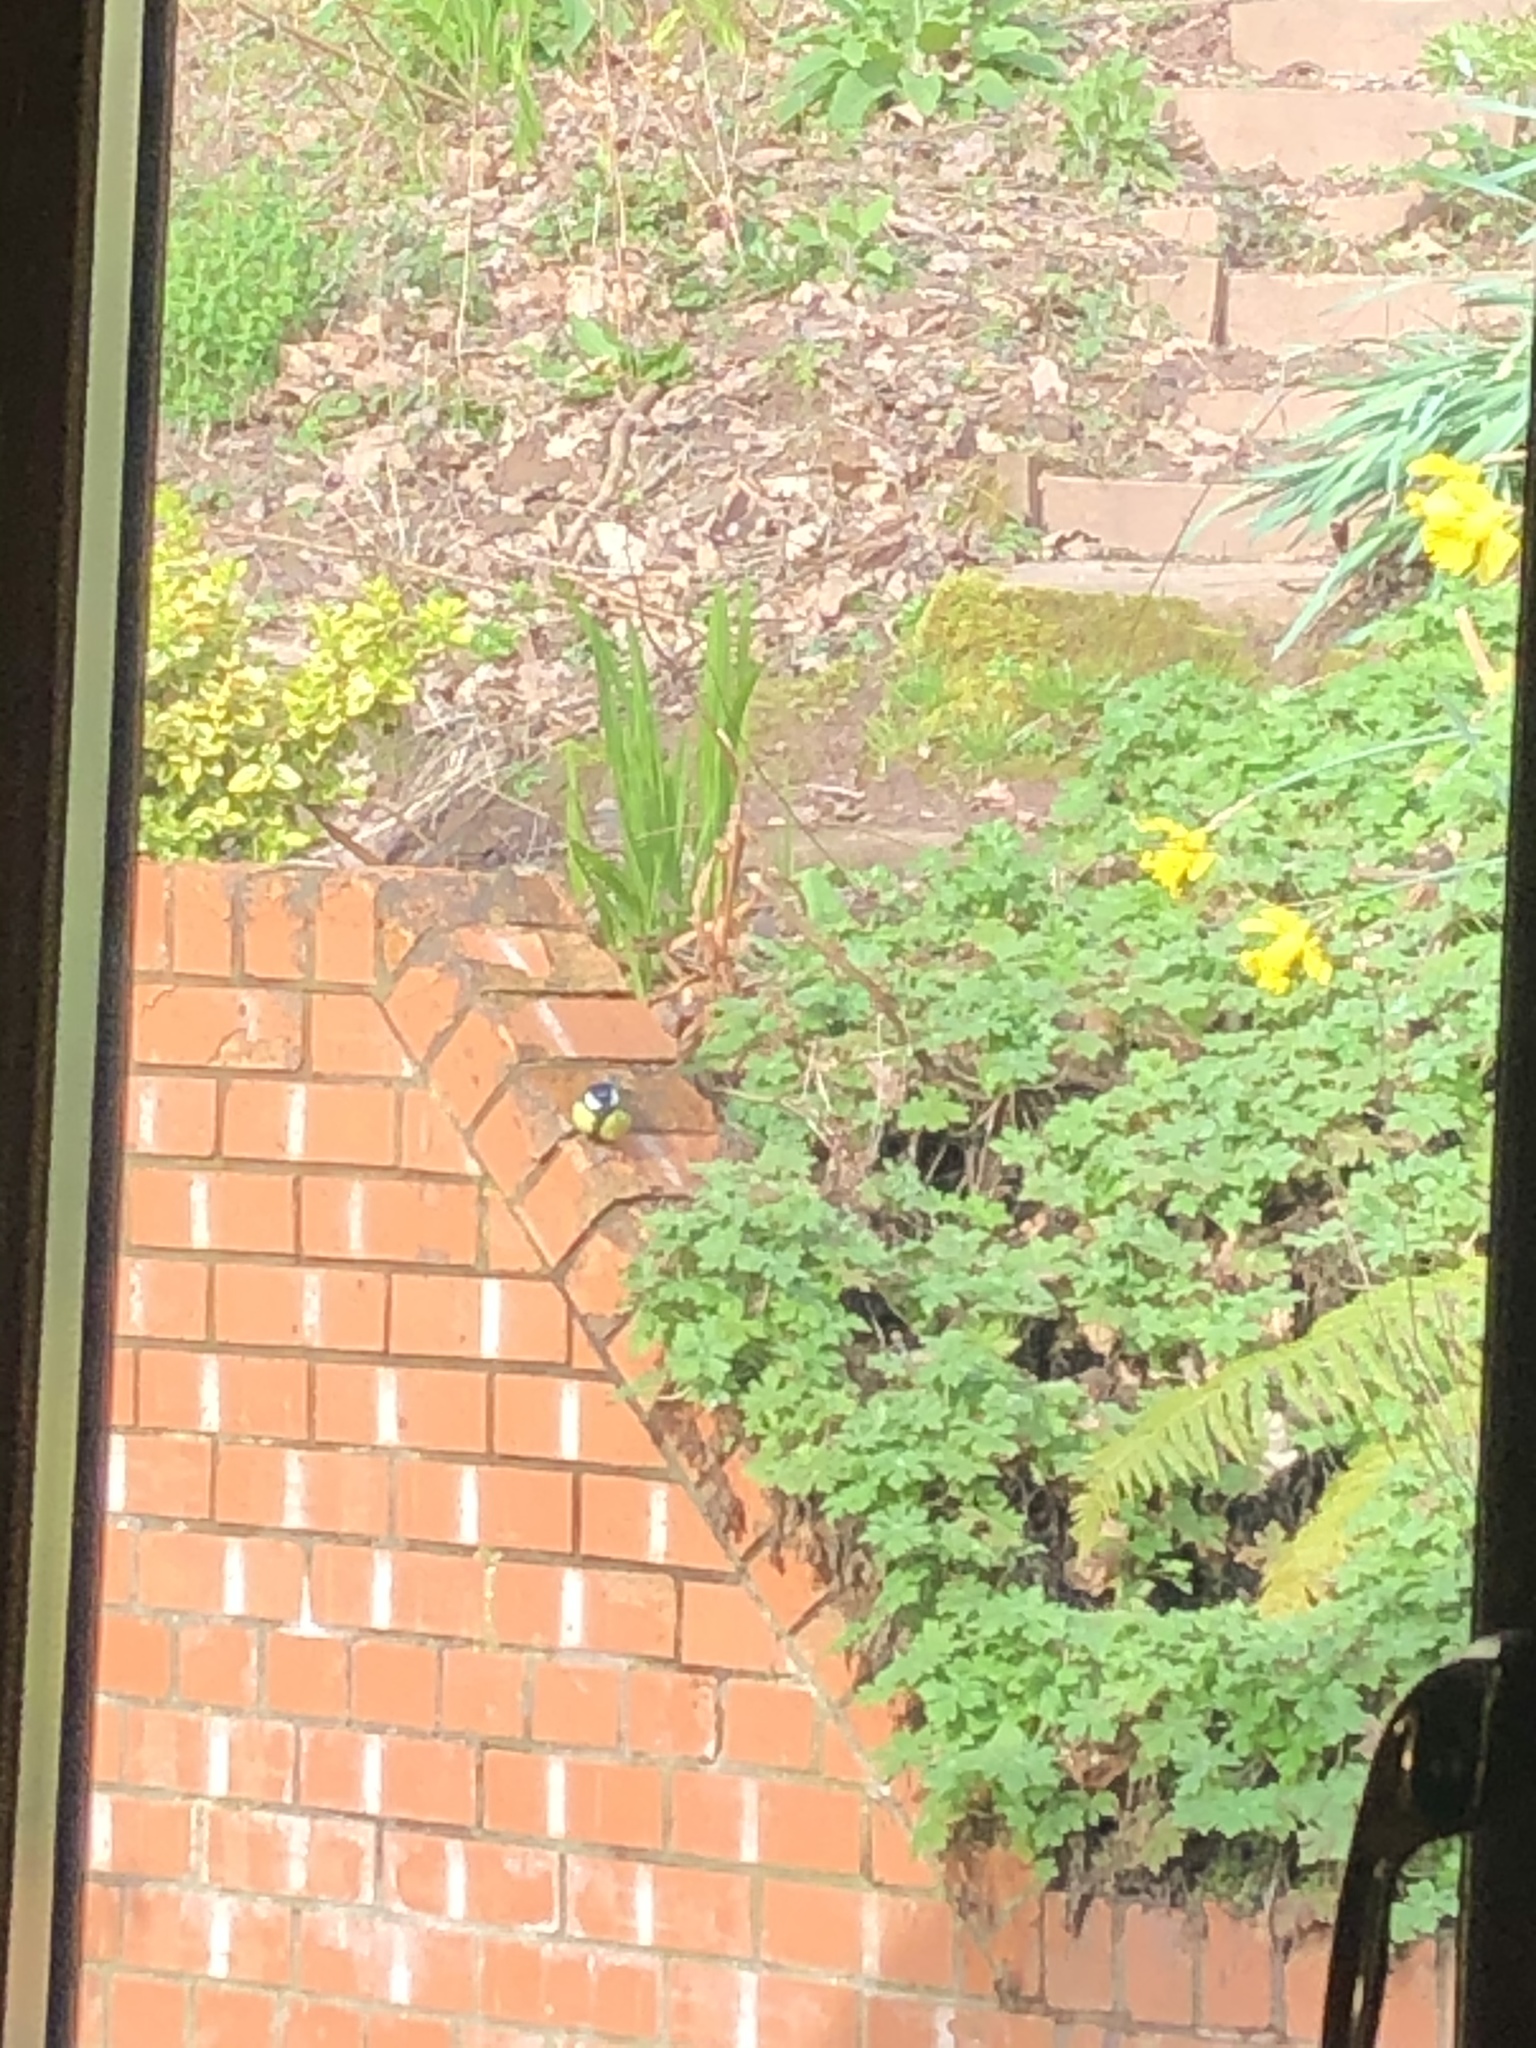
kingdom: Animalia
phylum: Chordata
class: Aves
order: Passeriformes
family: Paridae
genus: Parus
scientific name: Parus major
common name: Great tit
